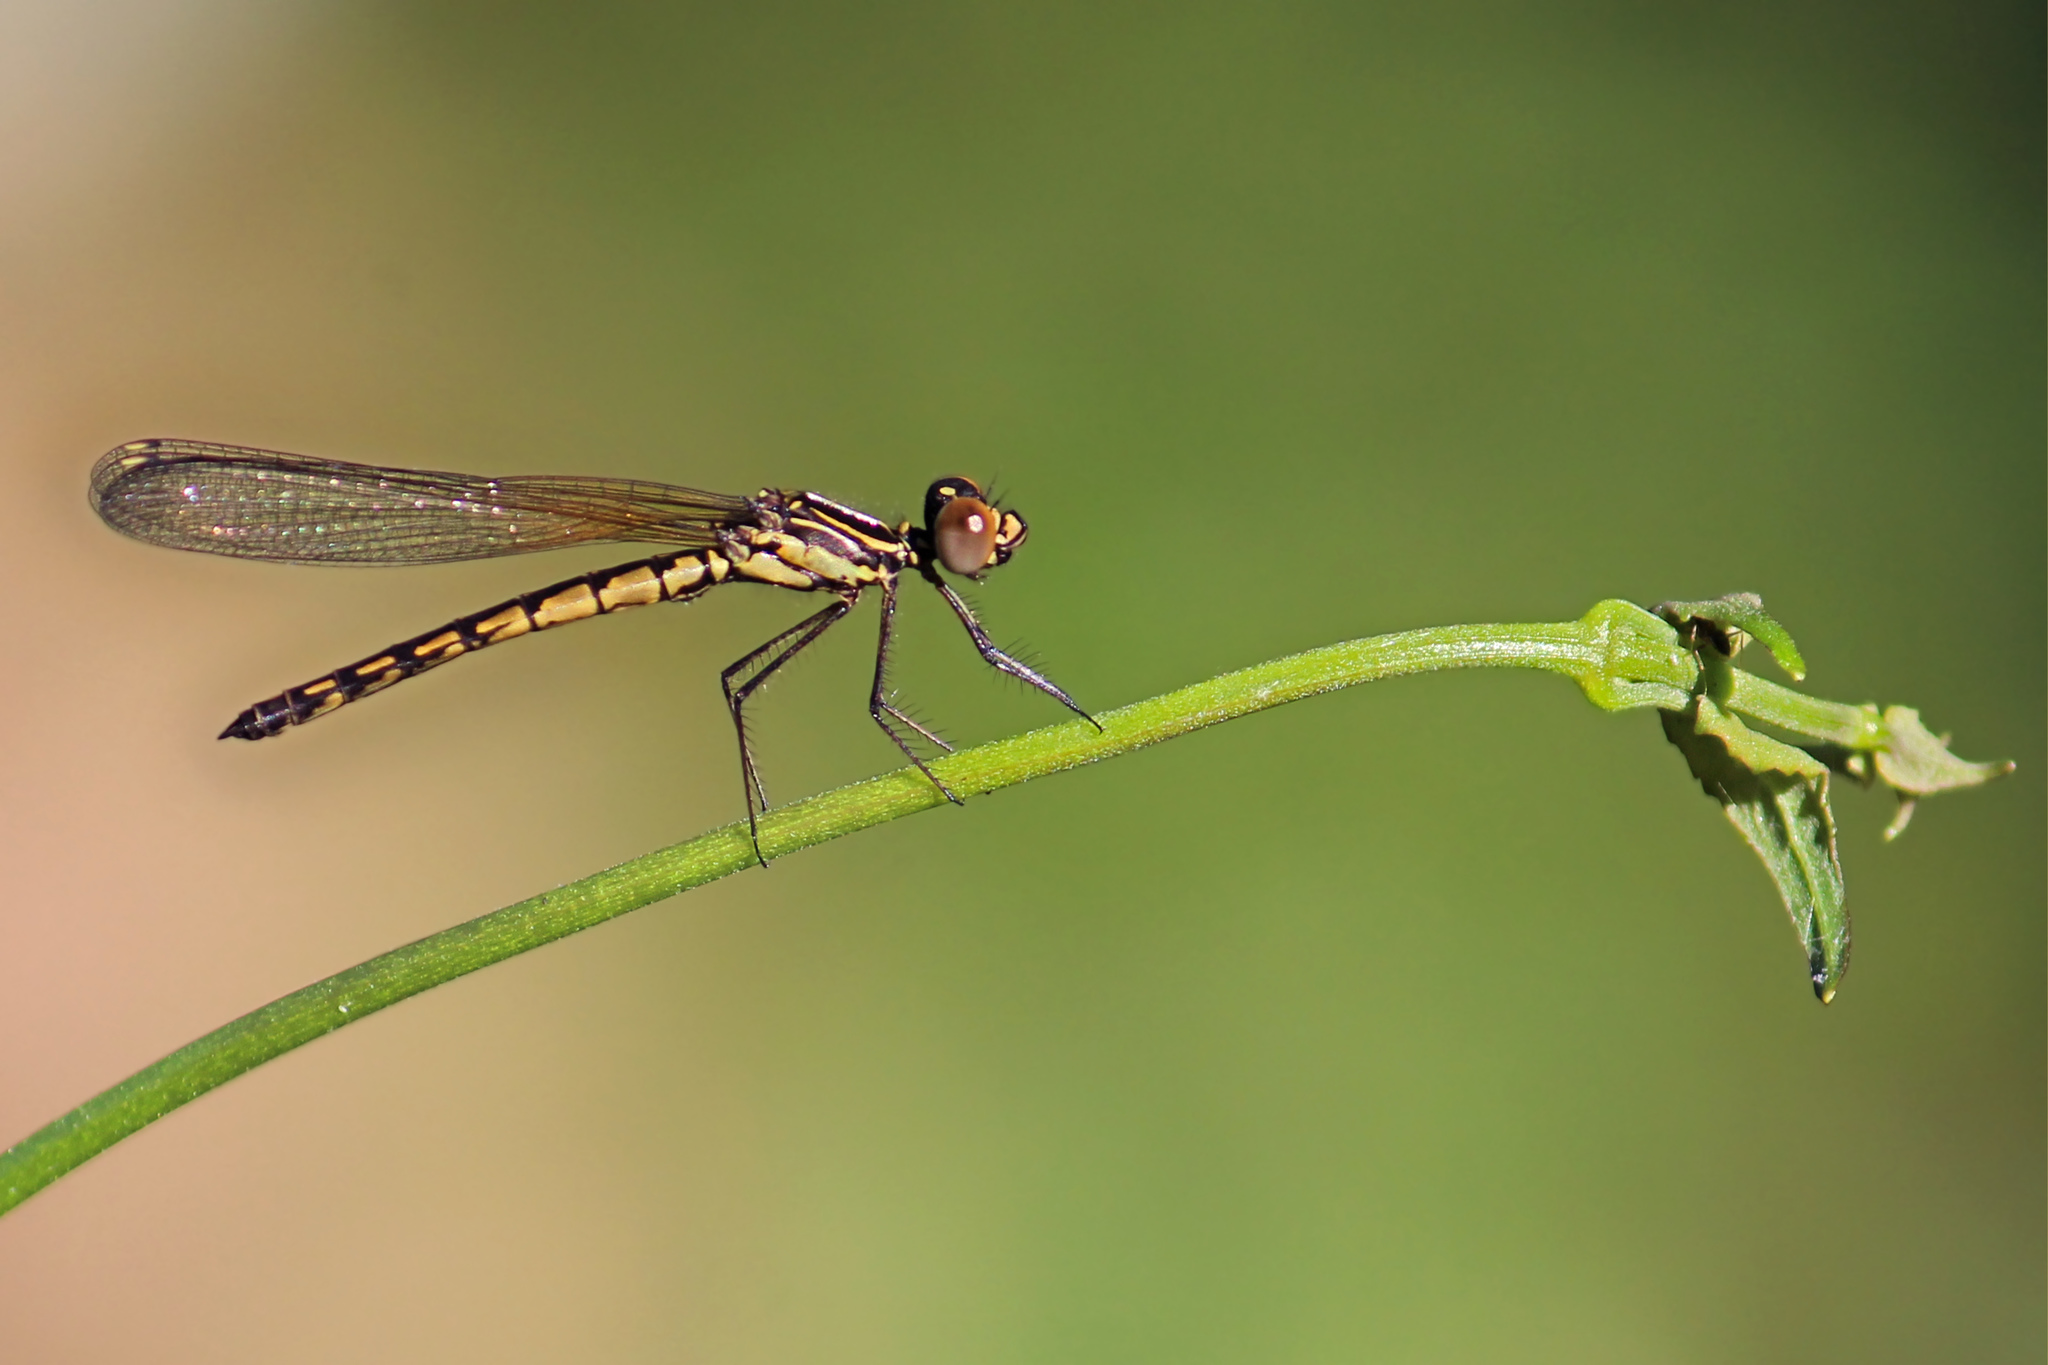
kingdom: Animalia
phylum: Arthropoda
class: Insecta
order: Odonata
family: Chlorocyphidae
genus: Libellago
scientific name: Libellago indica
